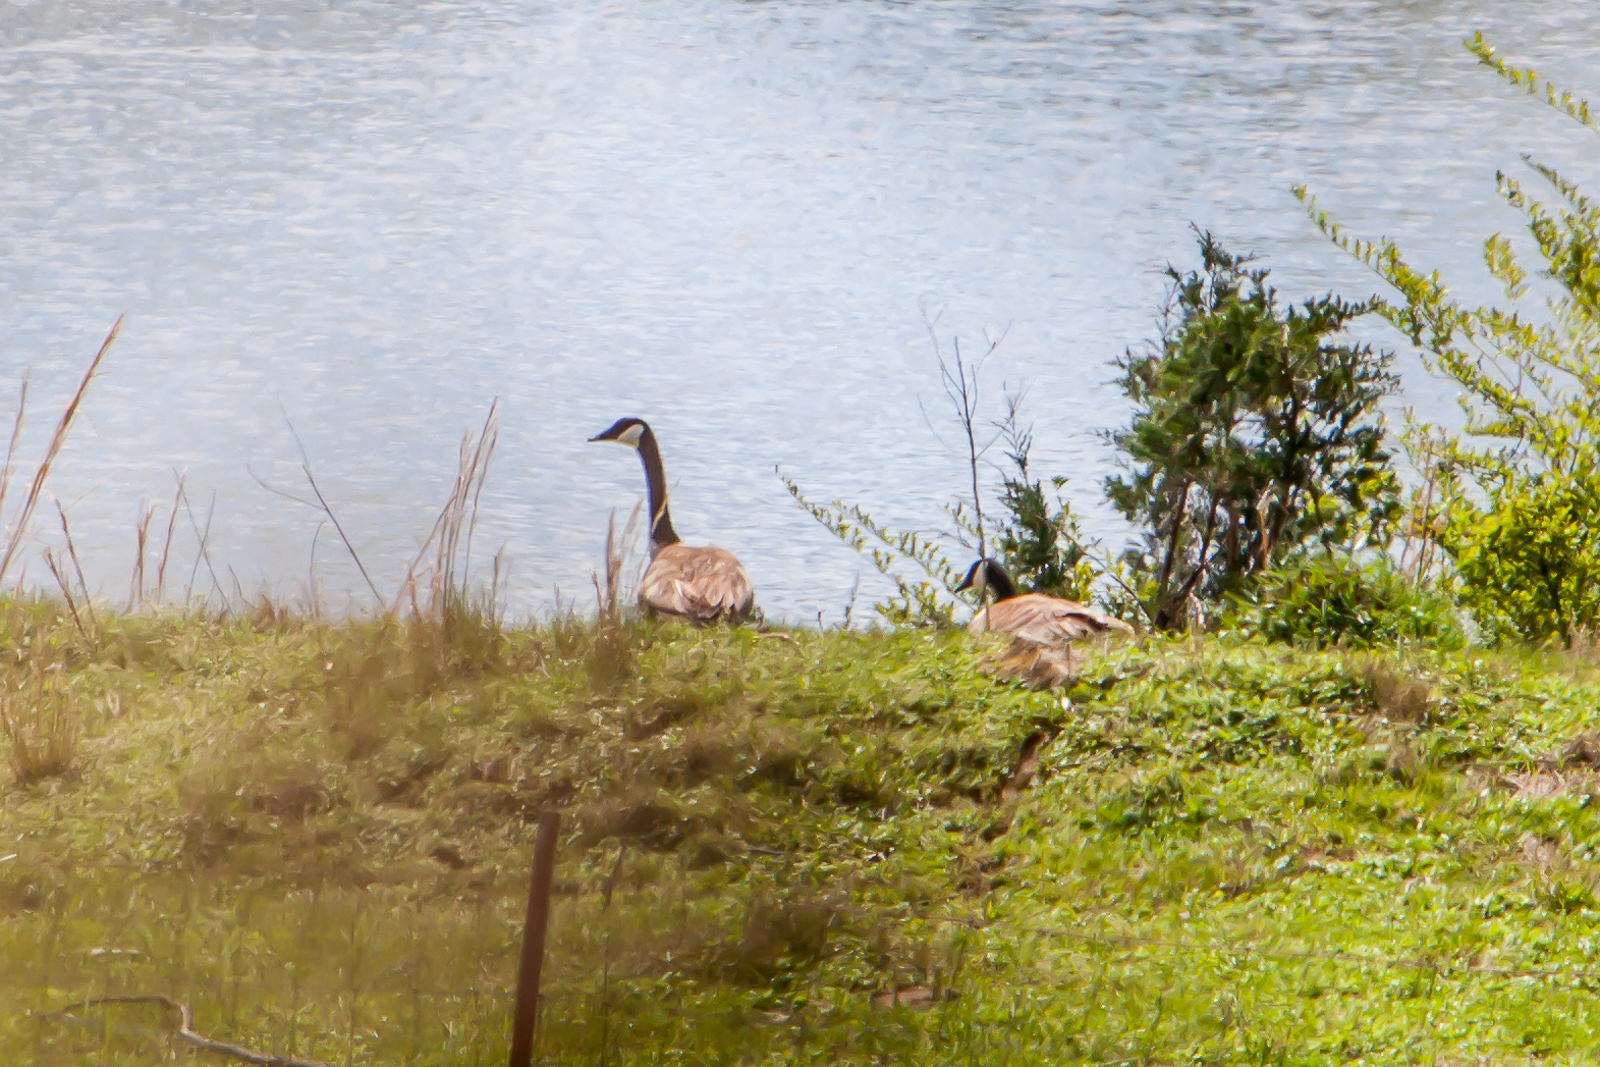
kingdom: Animalia
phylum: Chordata
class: Aves
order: Anseriformes
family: Anatidae
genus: Branta
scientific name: Branta canadensis
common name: Canada goose
